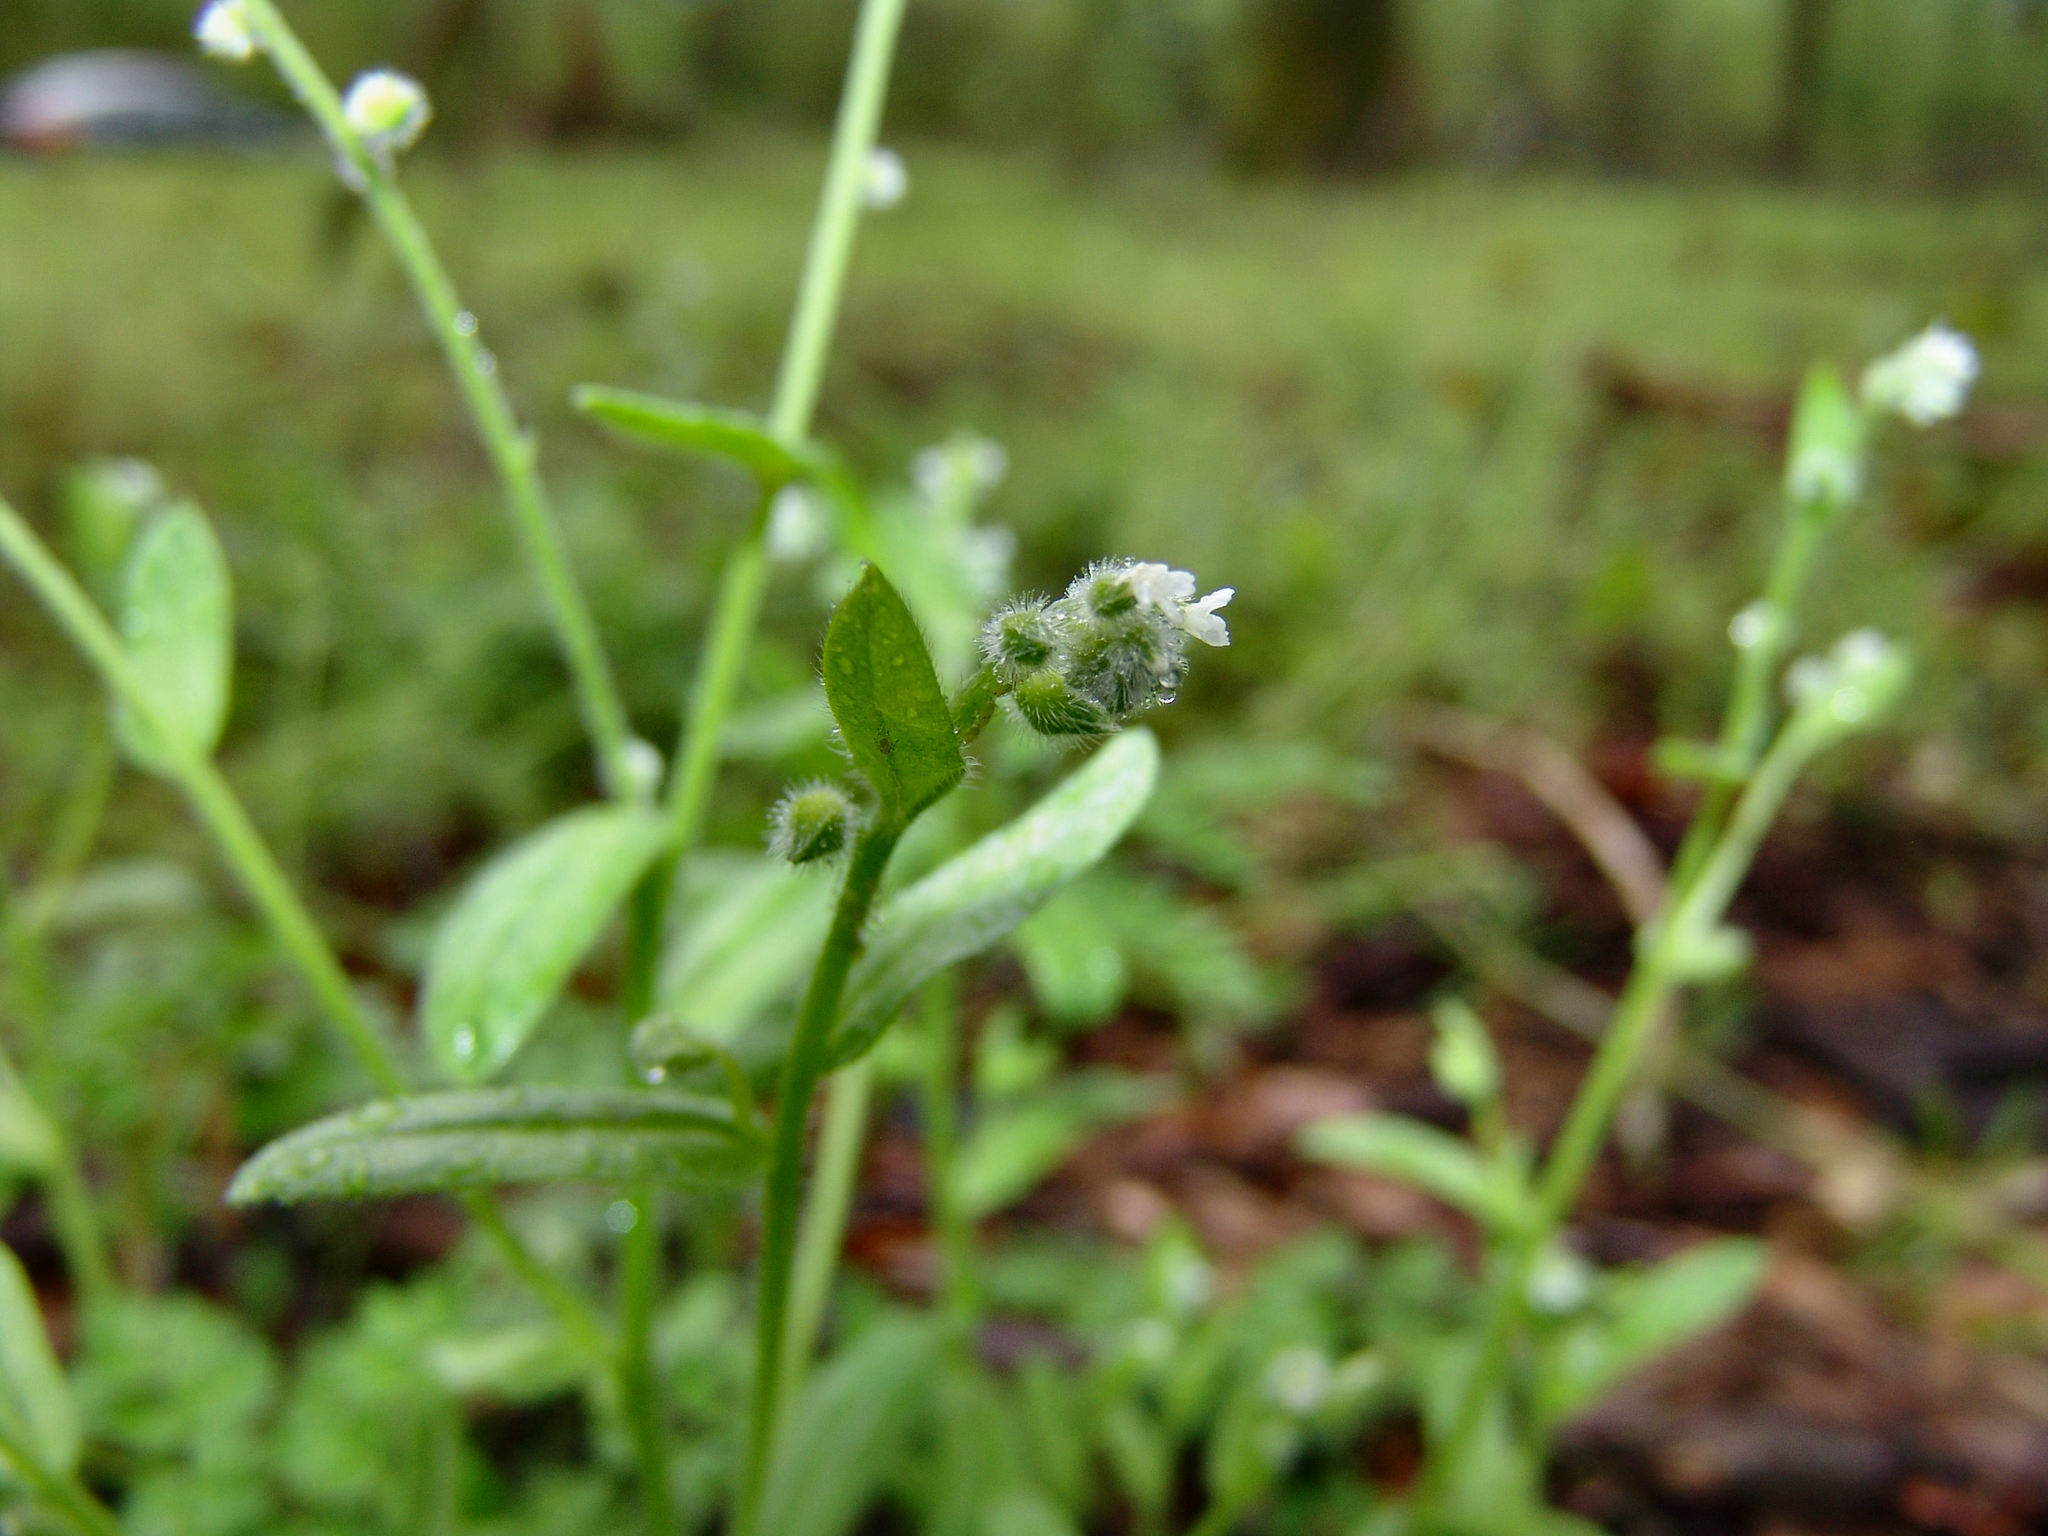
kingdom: Plantae
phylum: Tracheophyta
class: Magnoliopsida
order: Boraginales
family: Boraginaceae
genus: Myosotis
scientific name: Myosotis macrosperma
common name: Large-seed forget-me-not
